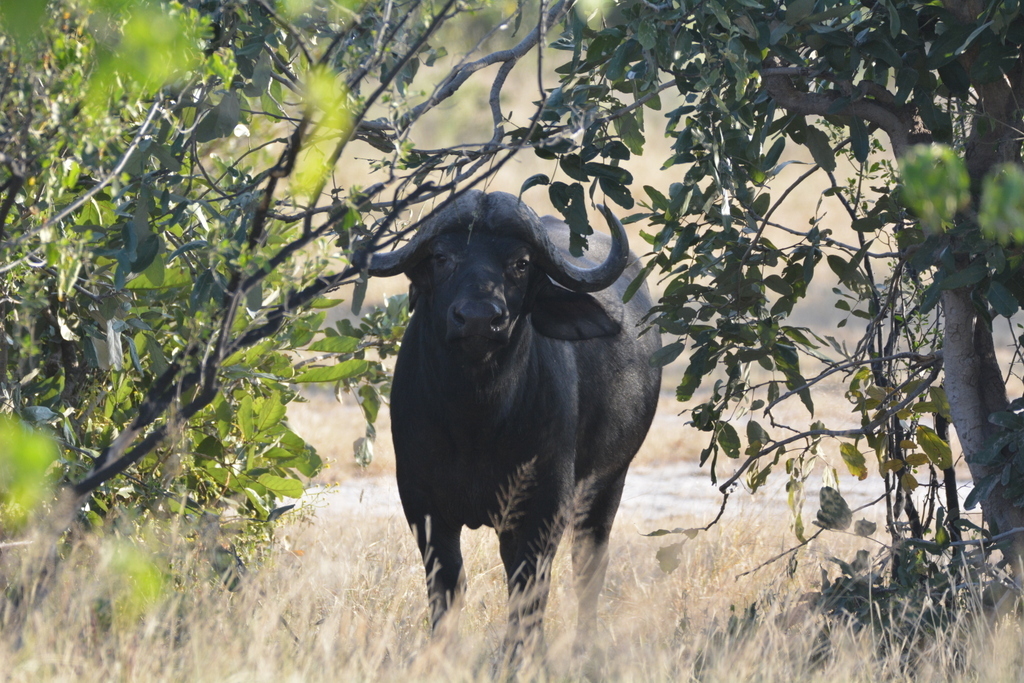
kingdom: Animalia
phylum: Chordata
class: Mammalia
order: Artiodactyla
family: Bovidae
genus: Syncerus
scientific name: Syncerus caffer
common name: African buffalo
